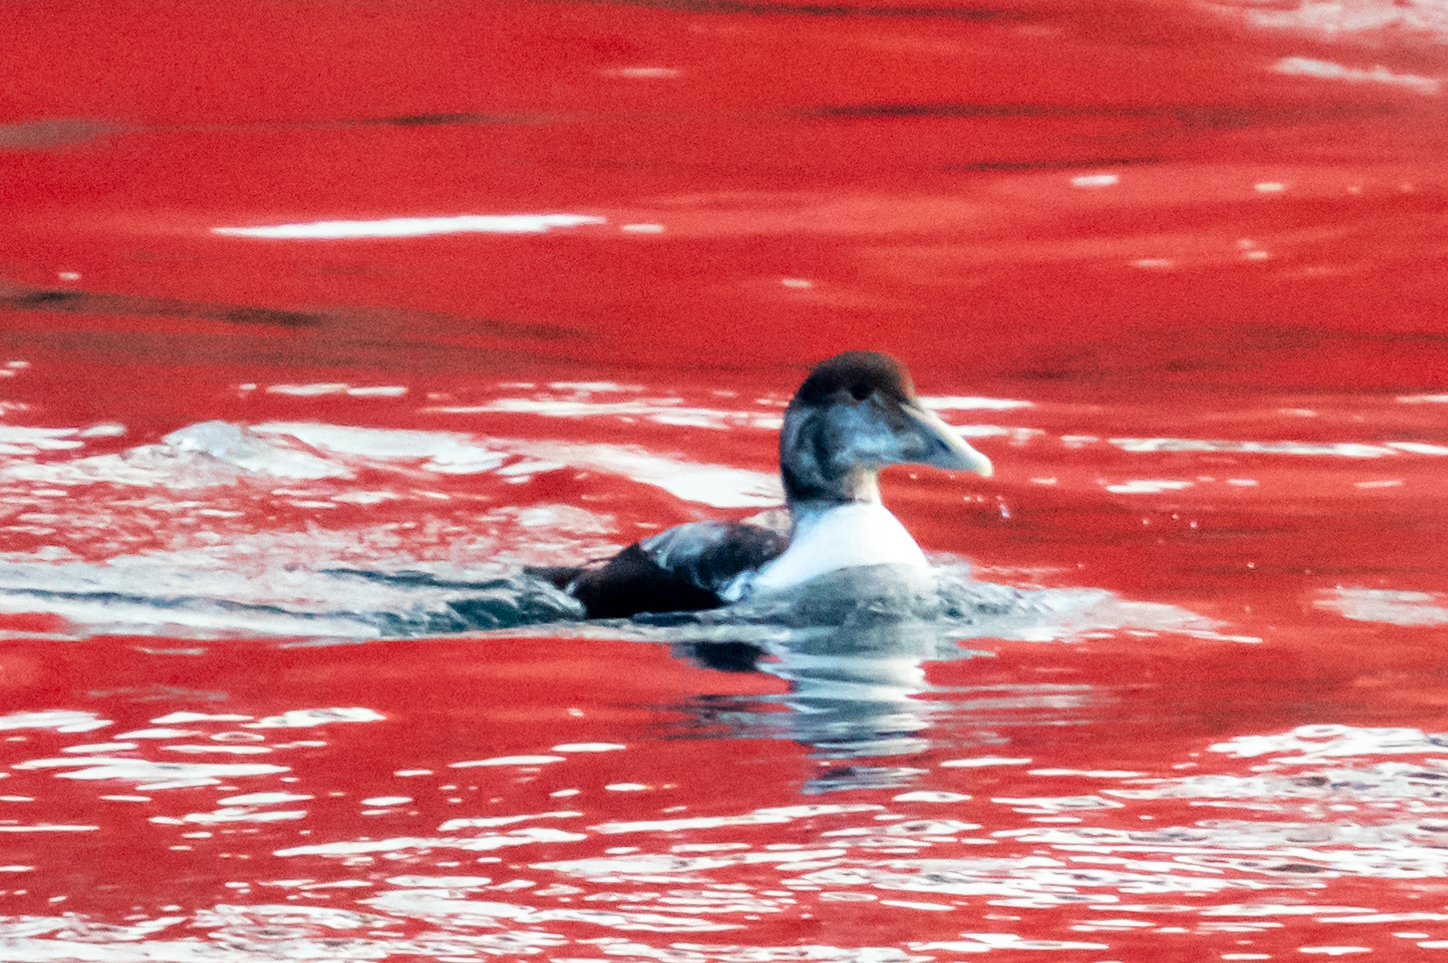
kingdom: Animalia
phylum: Chordata
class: Aves
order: Anseriformes
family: Anatidae
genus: Somateria
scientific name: Somateria mollissima
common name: Common eider
